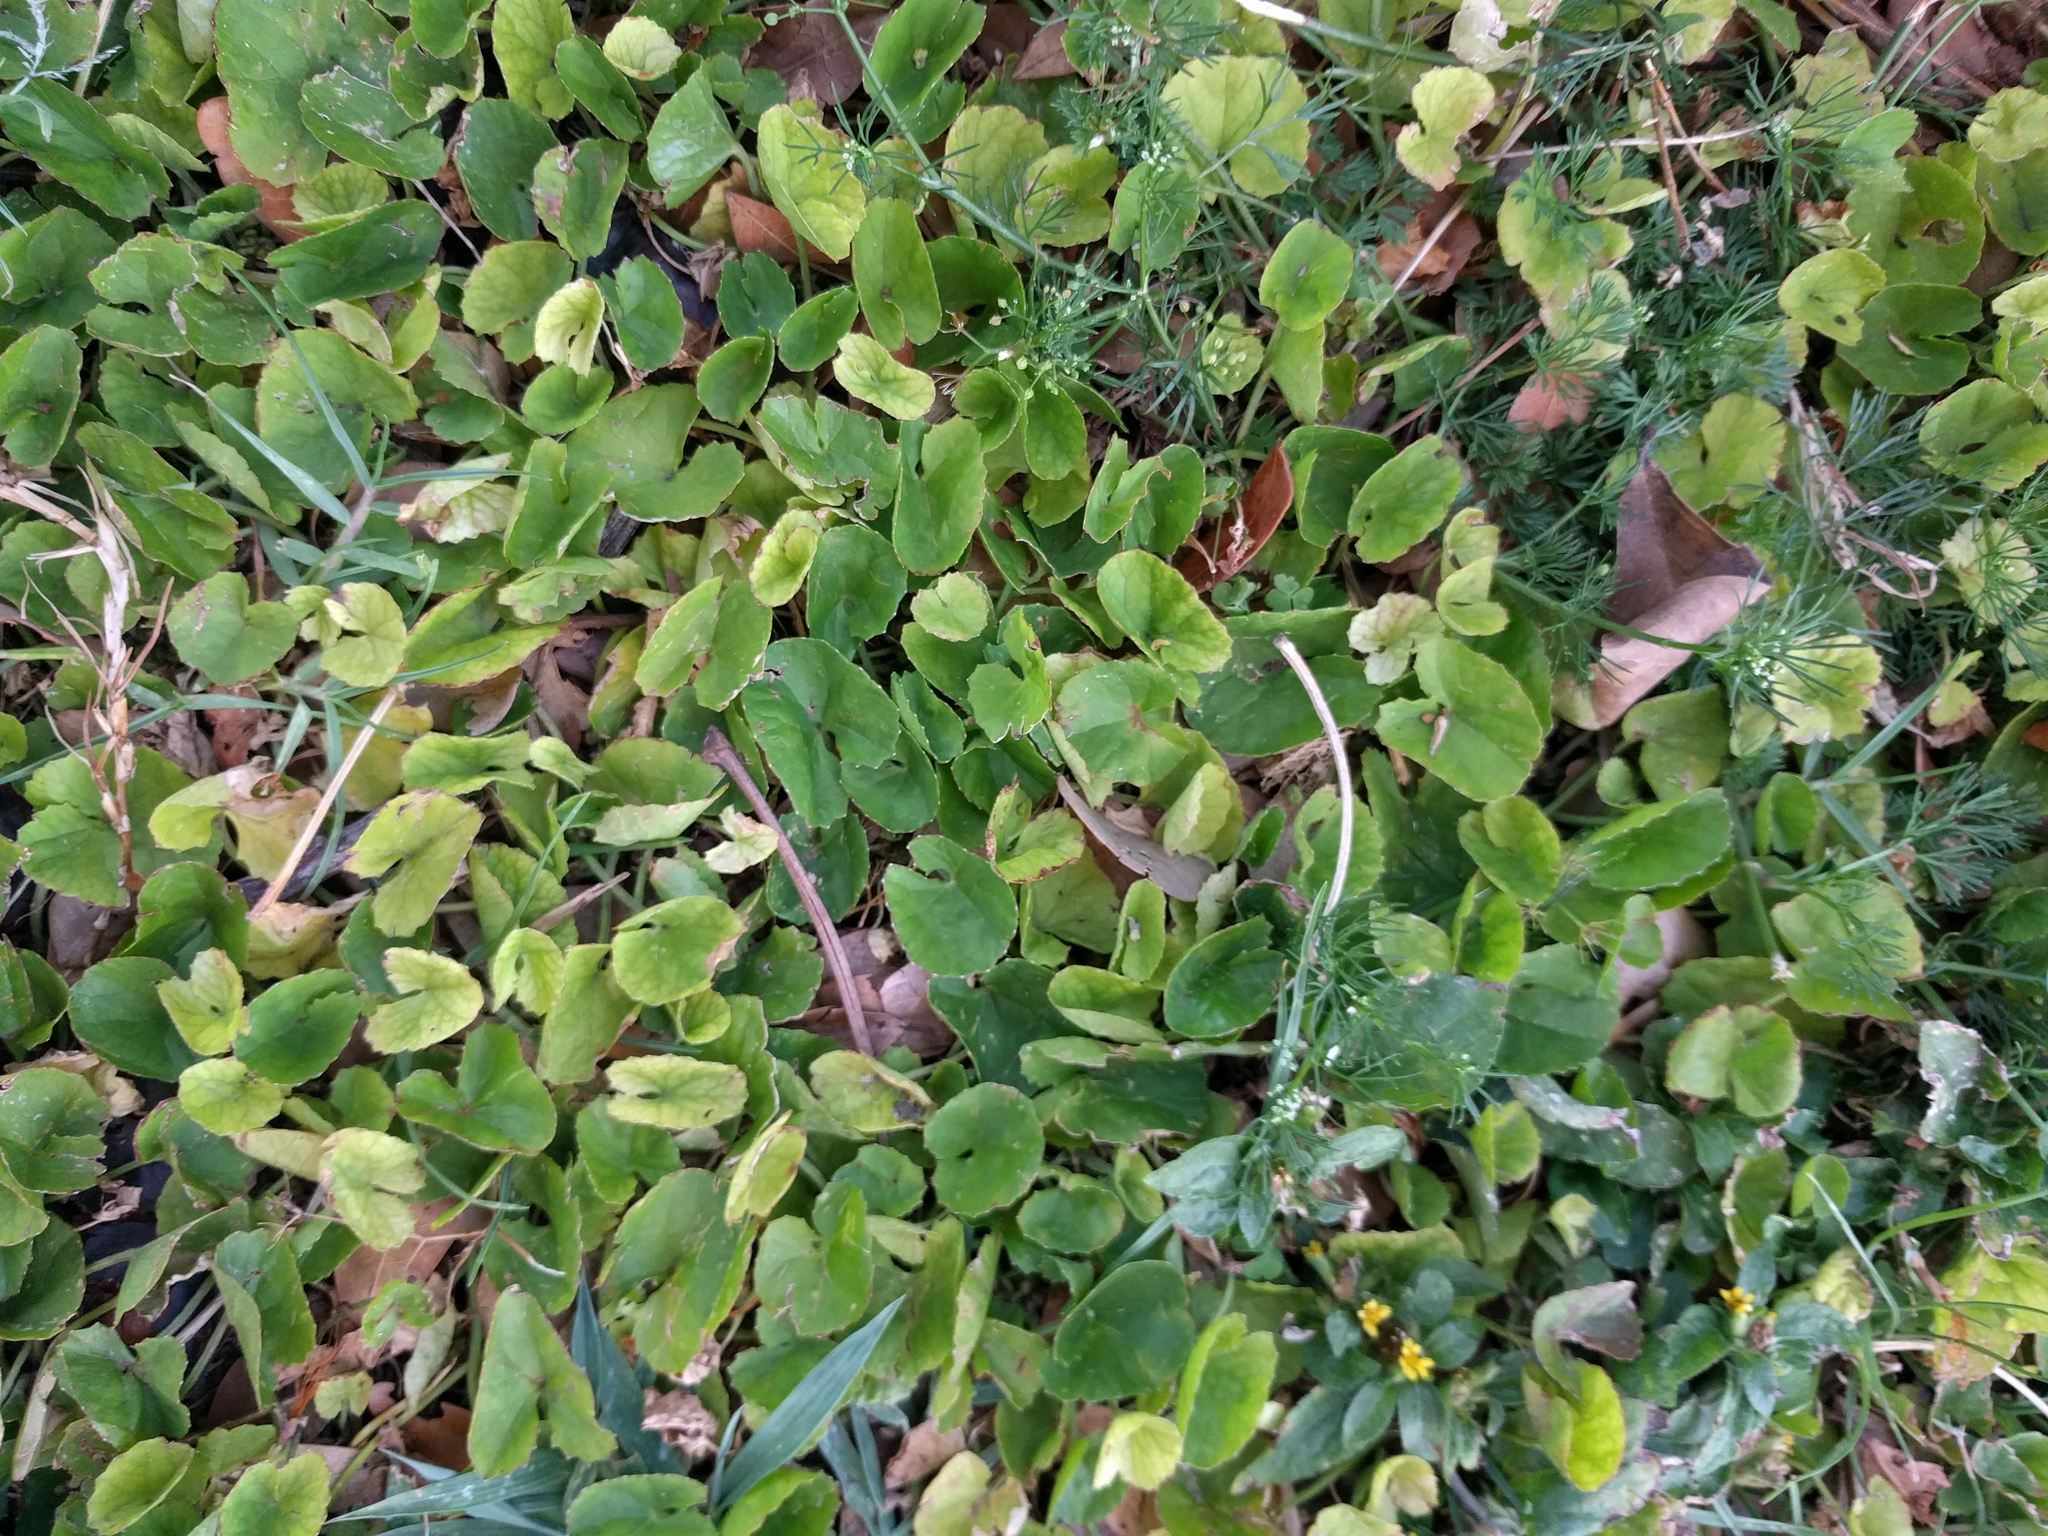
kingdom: Plantae
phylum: Tracheophyta
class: Magnoliopsida
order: Apiales
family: Apiaceae
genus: Centella
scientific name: Centella asiatica
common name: Spadeleaf
